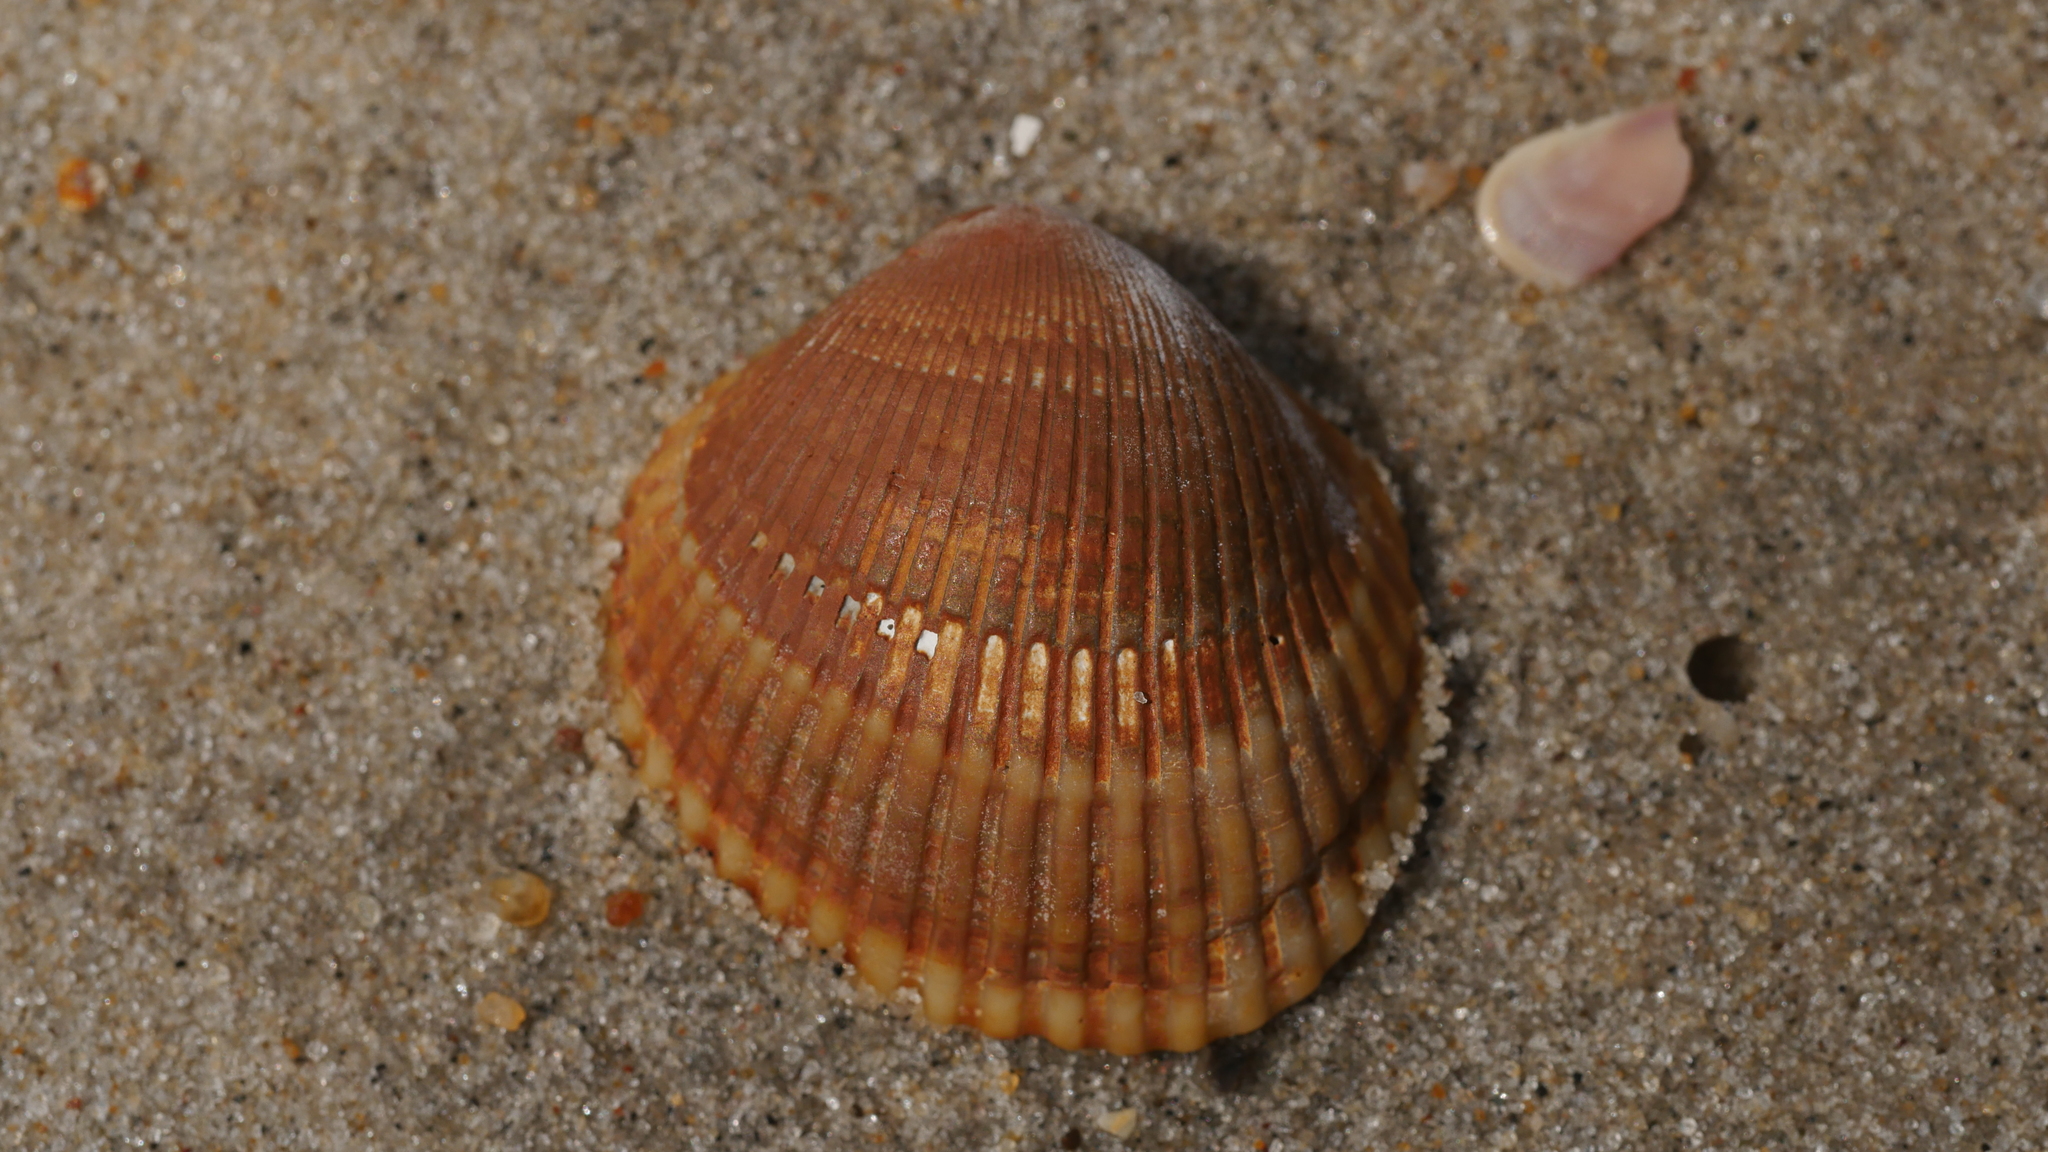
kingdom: Animalia
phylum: Mollusca
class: Bivalvia
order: Arcida
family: Arcidae
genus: Lunarca
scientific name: Lunarca ovalis
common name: Blood ark
